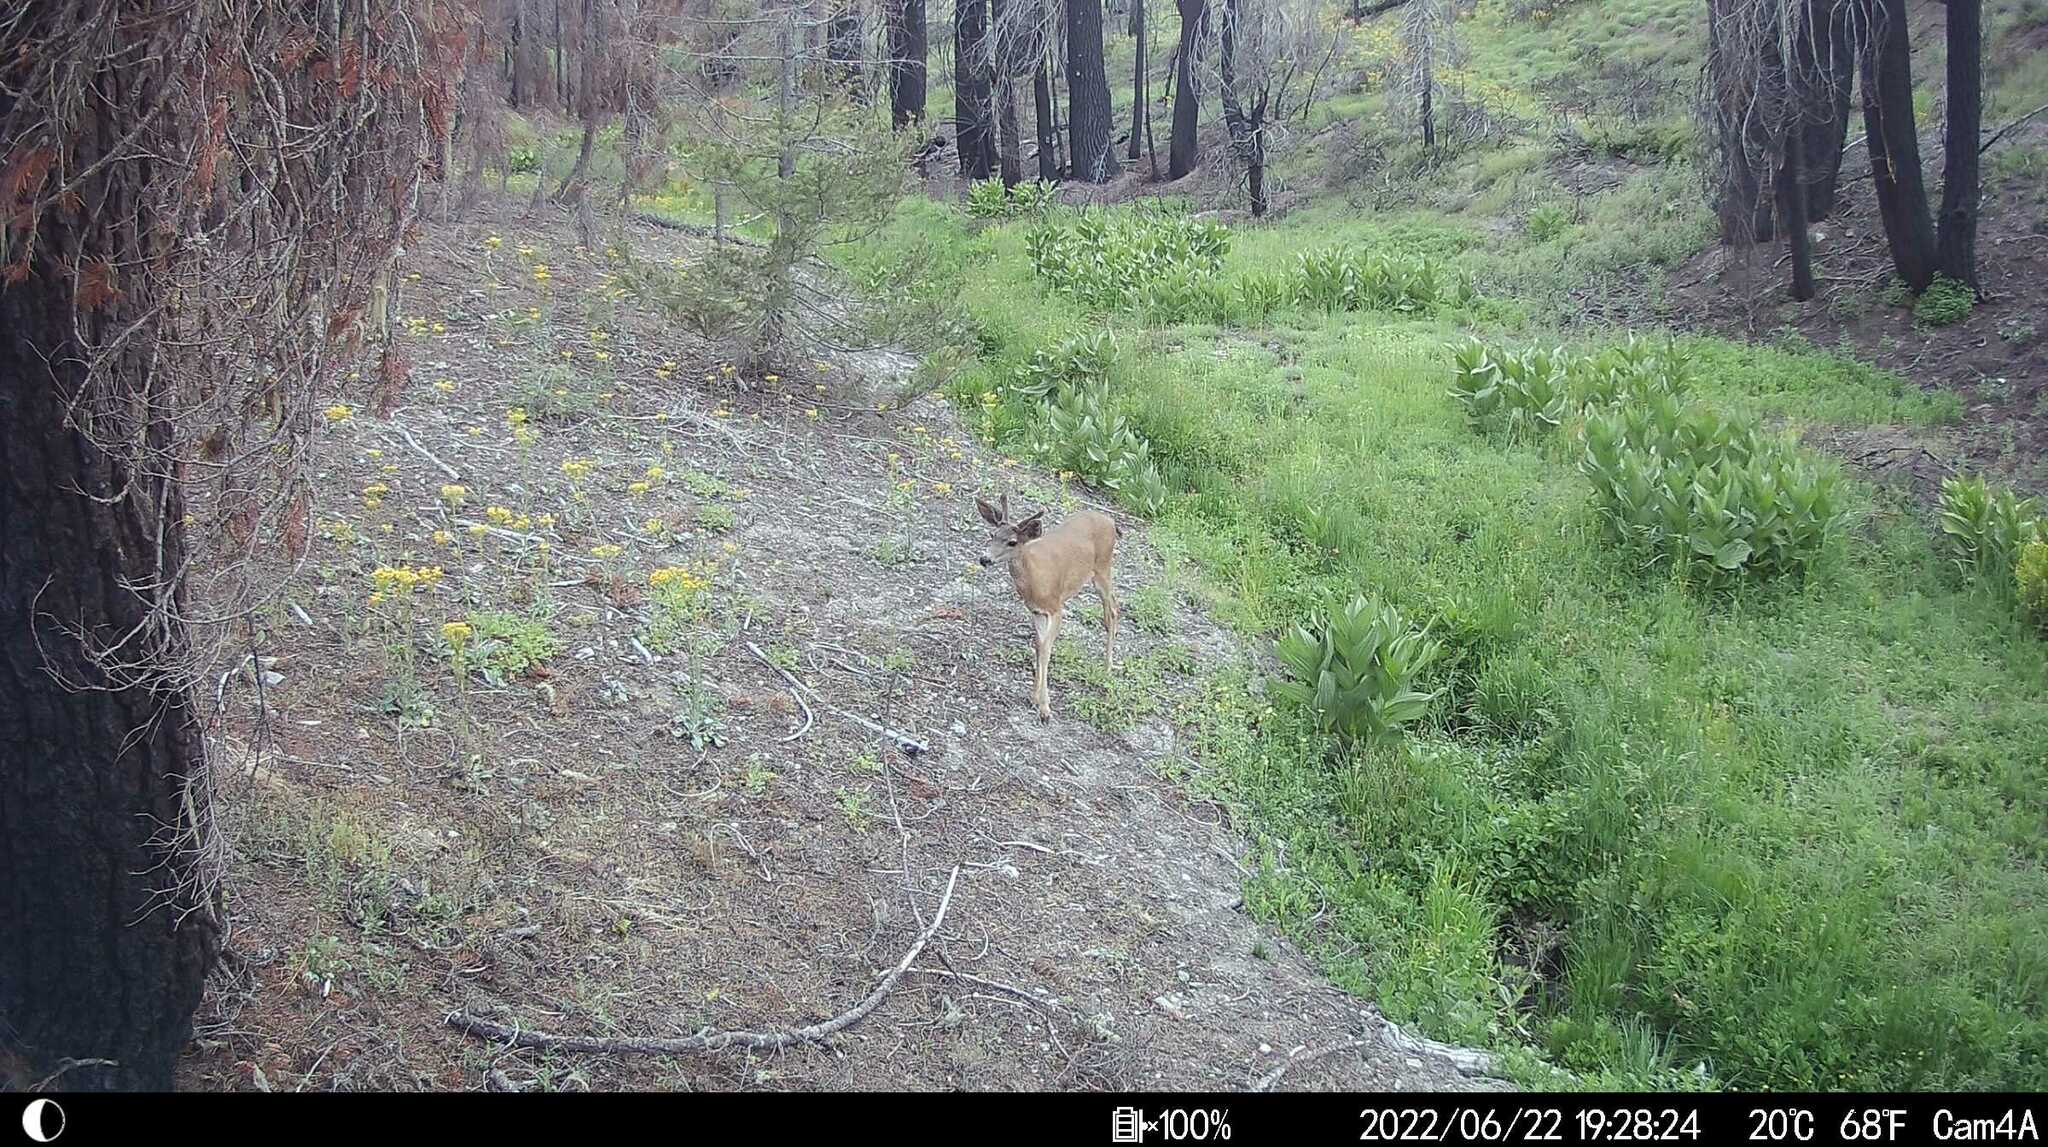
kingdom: Animalia
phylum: Chordata
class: Mammalia
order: Artiodactyla
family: Cervidae
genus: Odocoileus
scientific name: Odocoileus hemionus
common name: Mule deer
